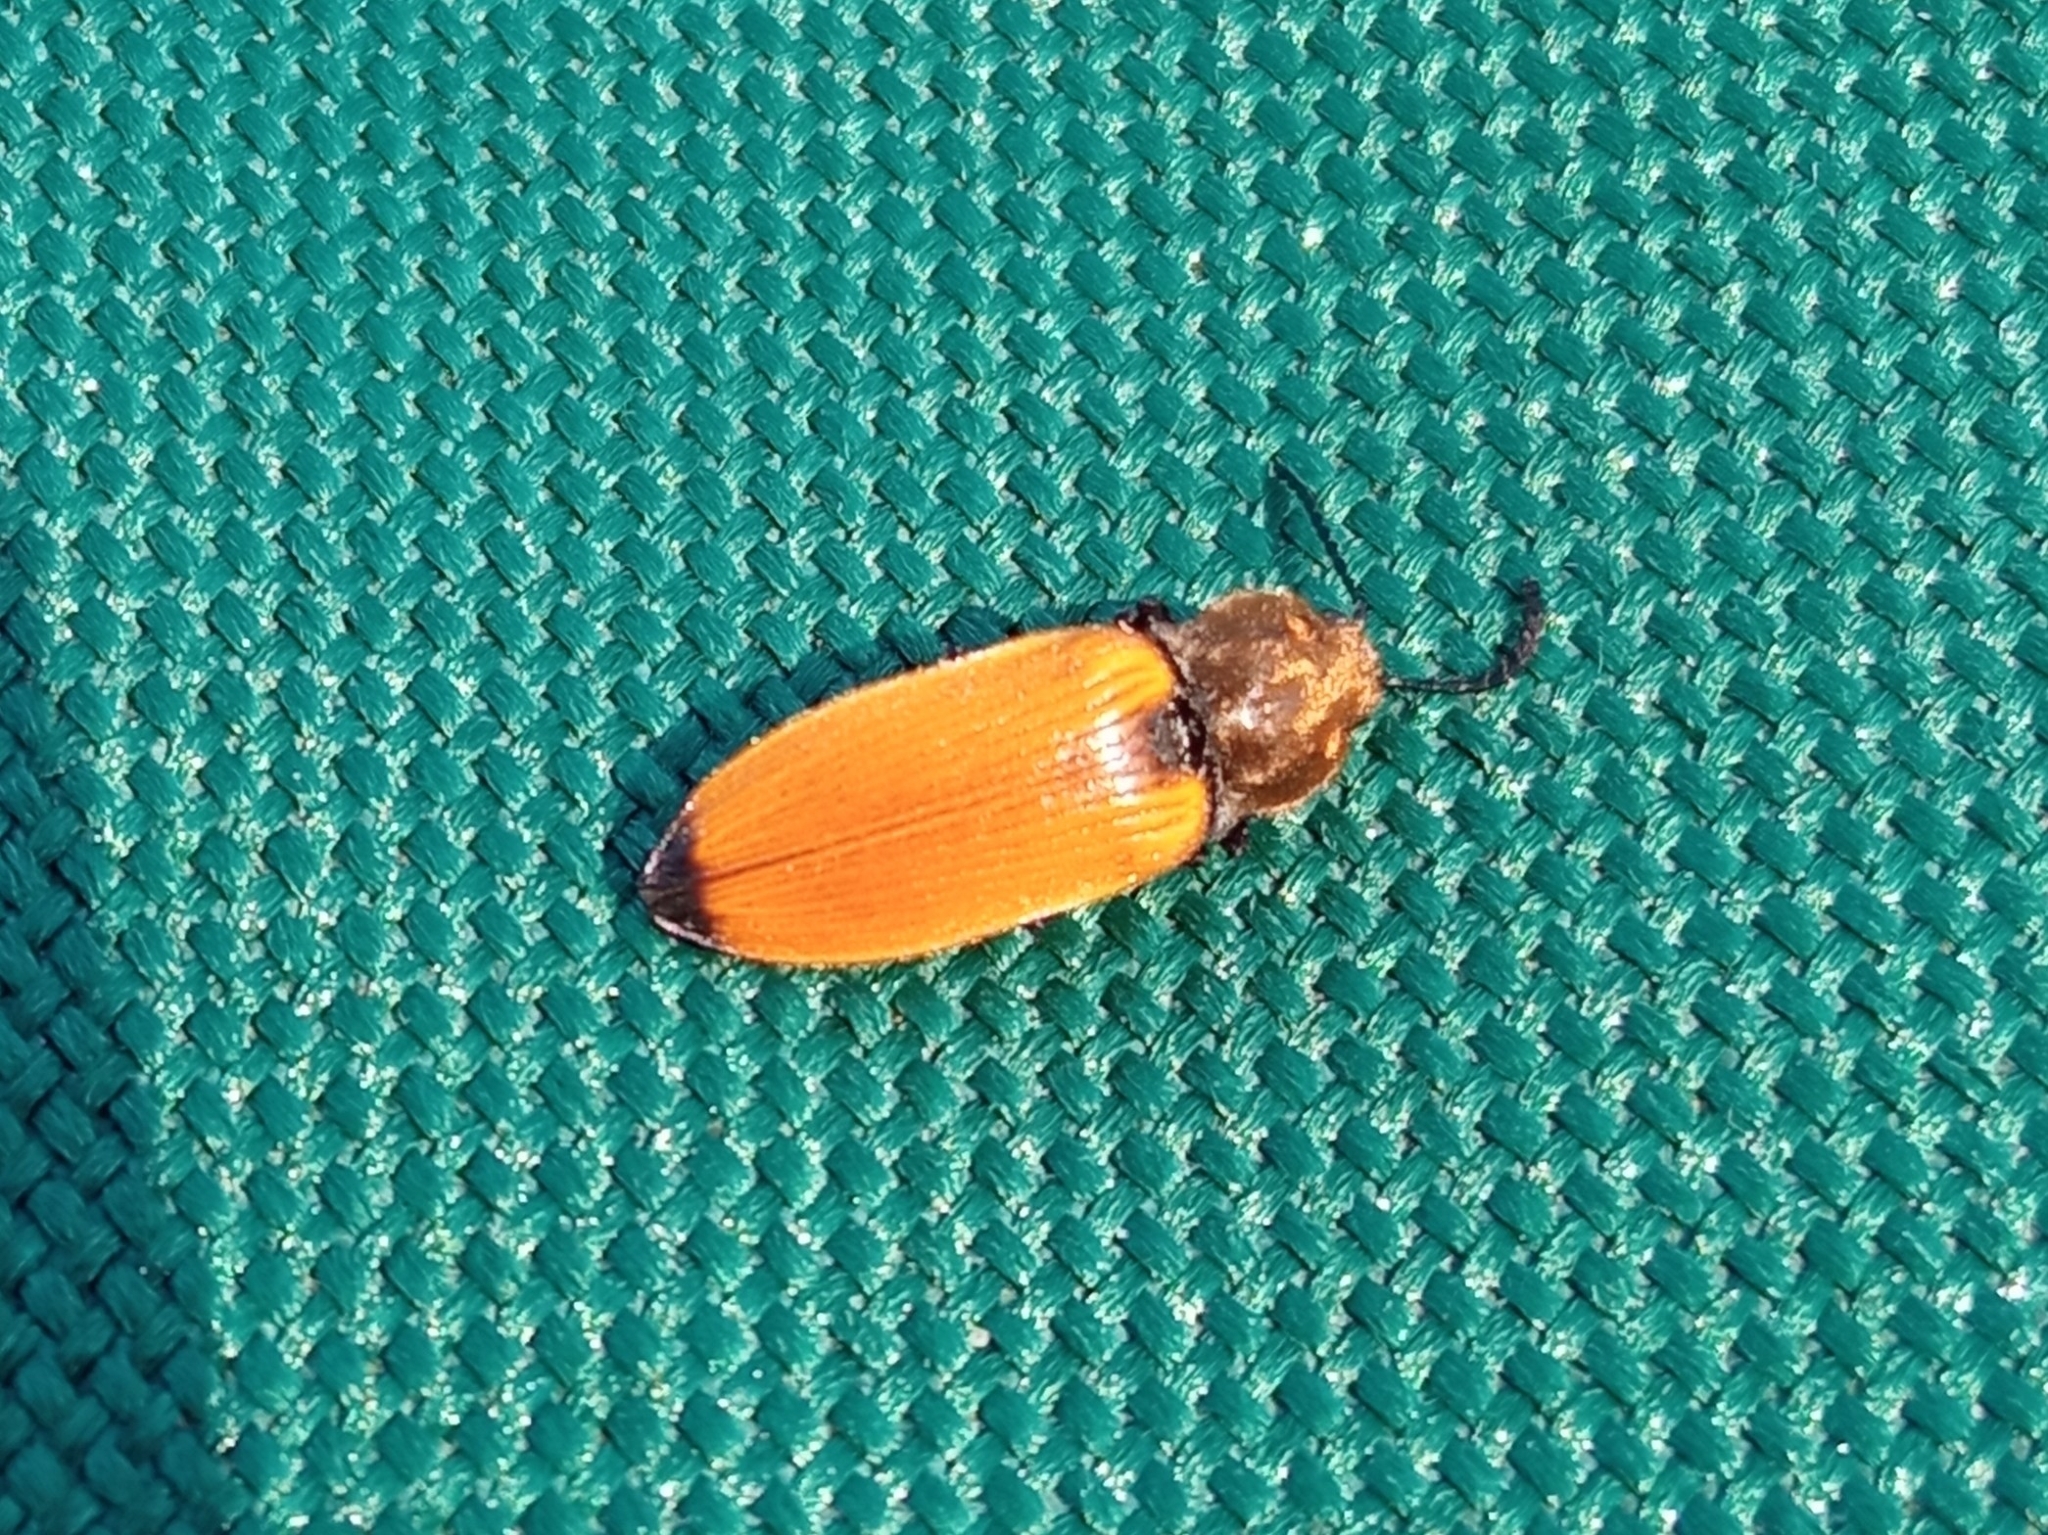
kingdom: Animalia
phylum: Arthropoda
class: Insecta
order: Coleoptera
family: Elateridae
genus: Anostirus
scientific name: Anostirus castaneus
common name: Chestnut coloured click beetle
